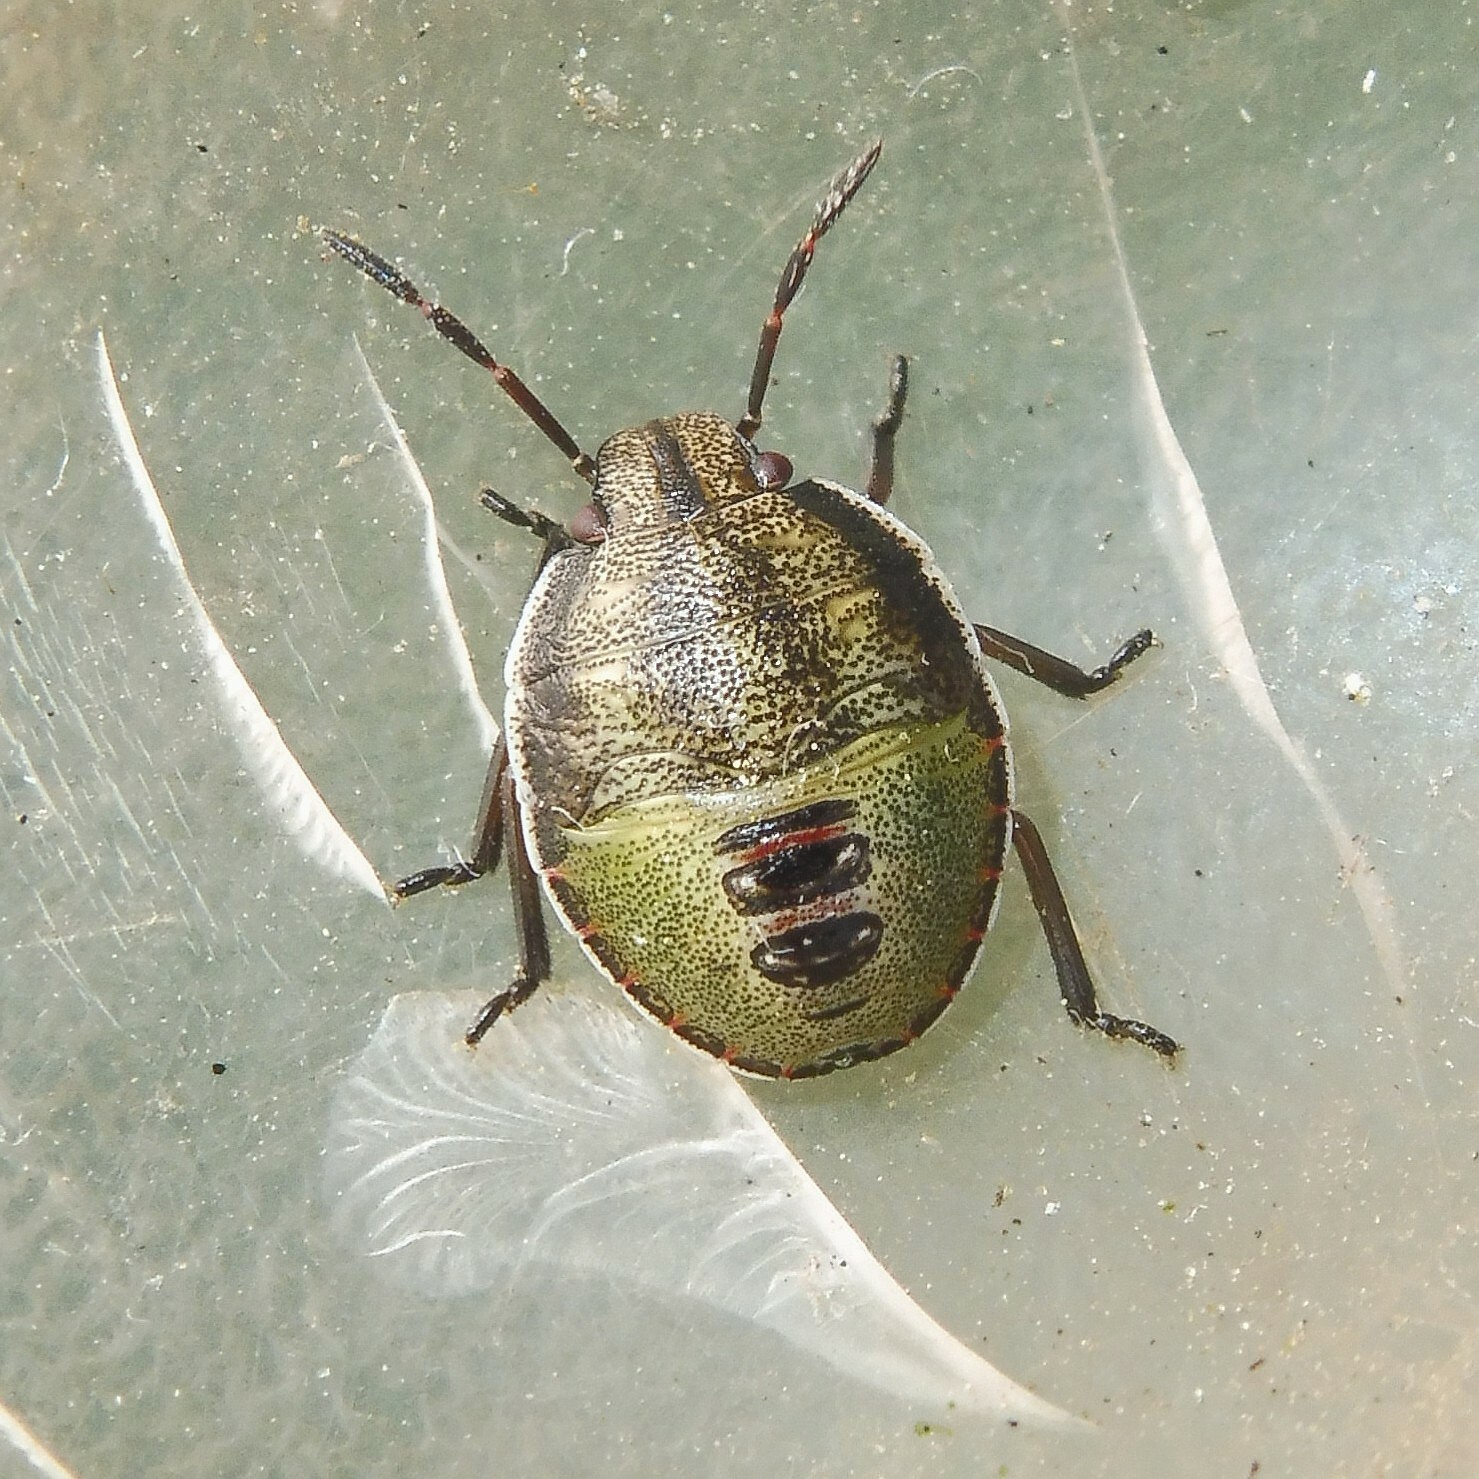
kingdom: Animalia
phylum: Arthropoda
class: Insecta
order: Hemiptera
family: Pentatomidae
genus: Piezodorus
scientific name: Piezodorus lituratus
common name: Stink bug
